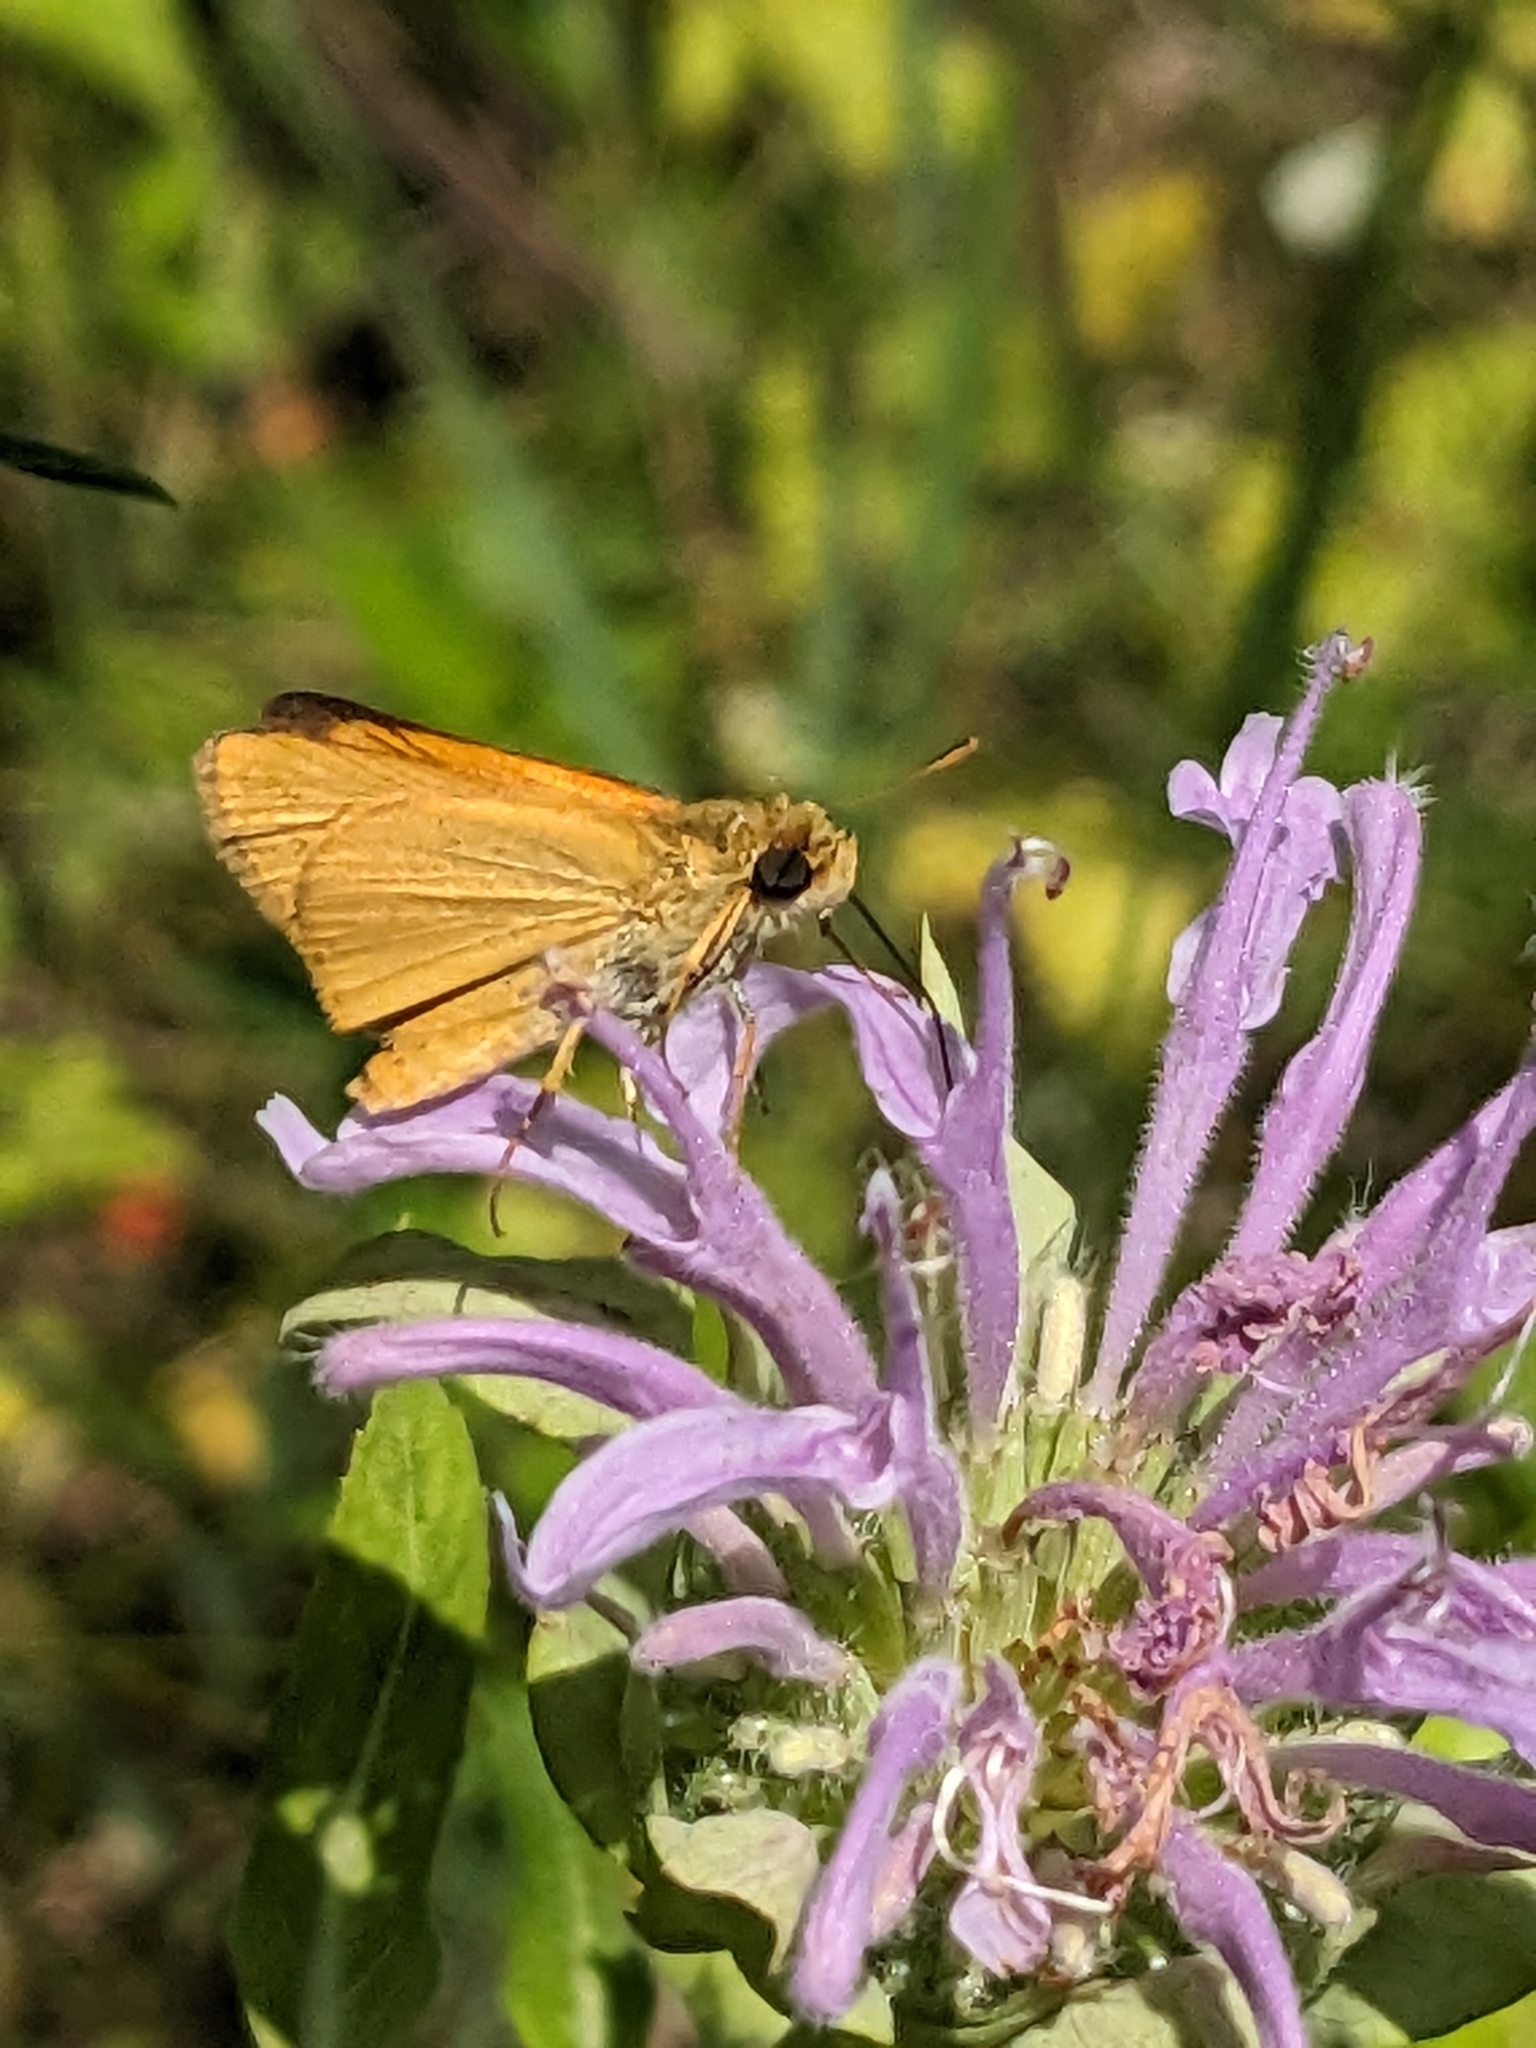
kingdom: Animalia
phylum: Arthropoda
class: Insecta
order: Lepidoptera
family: Hesperiidae
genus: Atrytone
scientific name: Atrytone delaware
